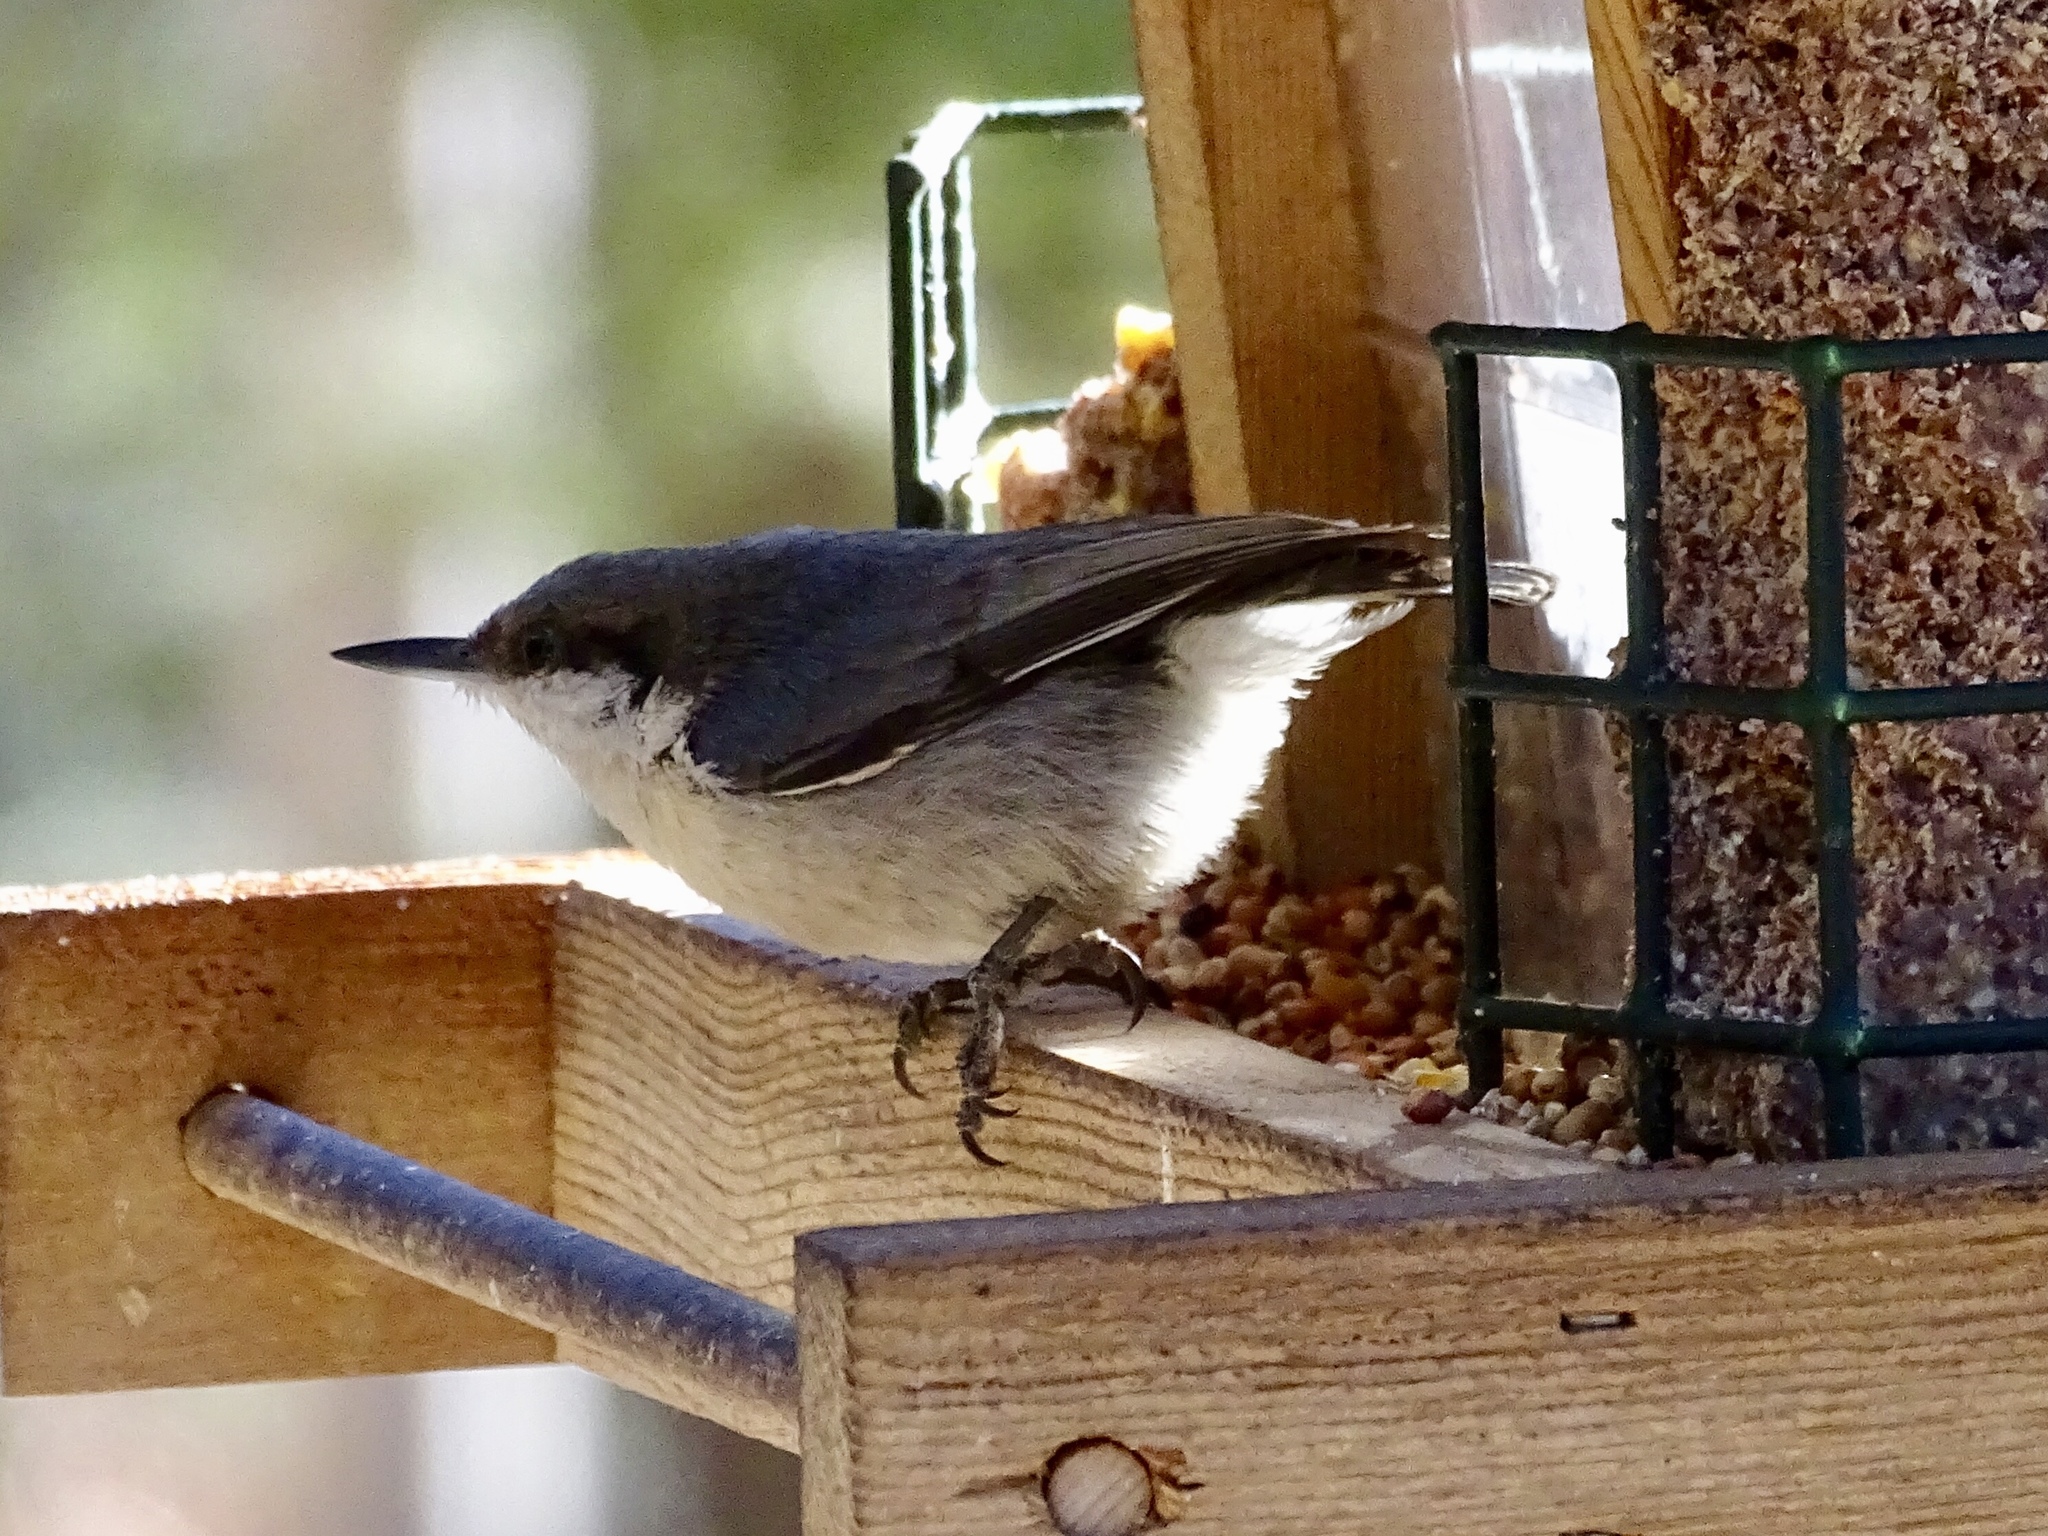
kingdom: Animalia
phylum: Chordata
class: Aves
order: Passeriformes
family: Sittidae
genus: Sitta
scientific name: Sitta pygmaea
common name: Pygmy nuthatch
